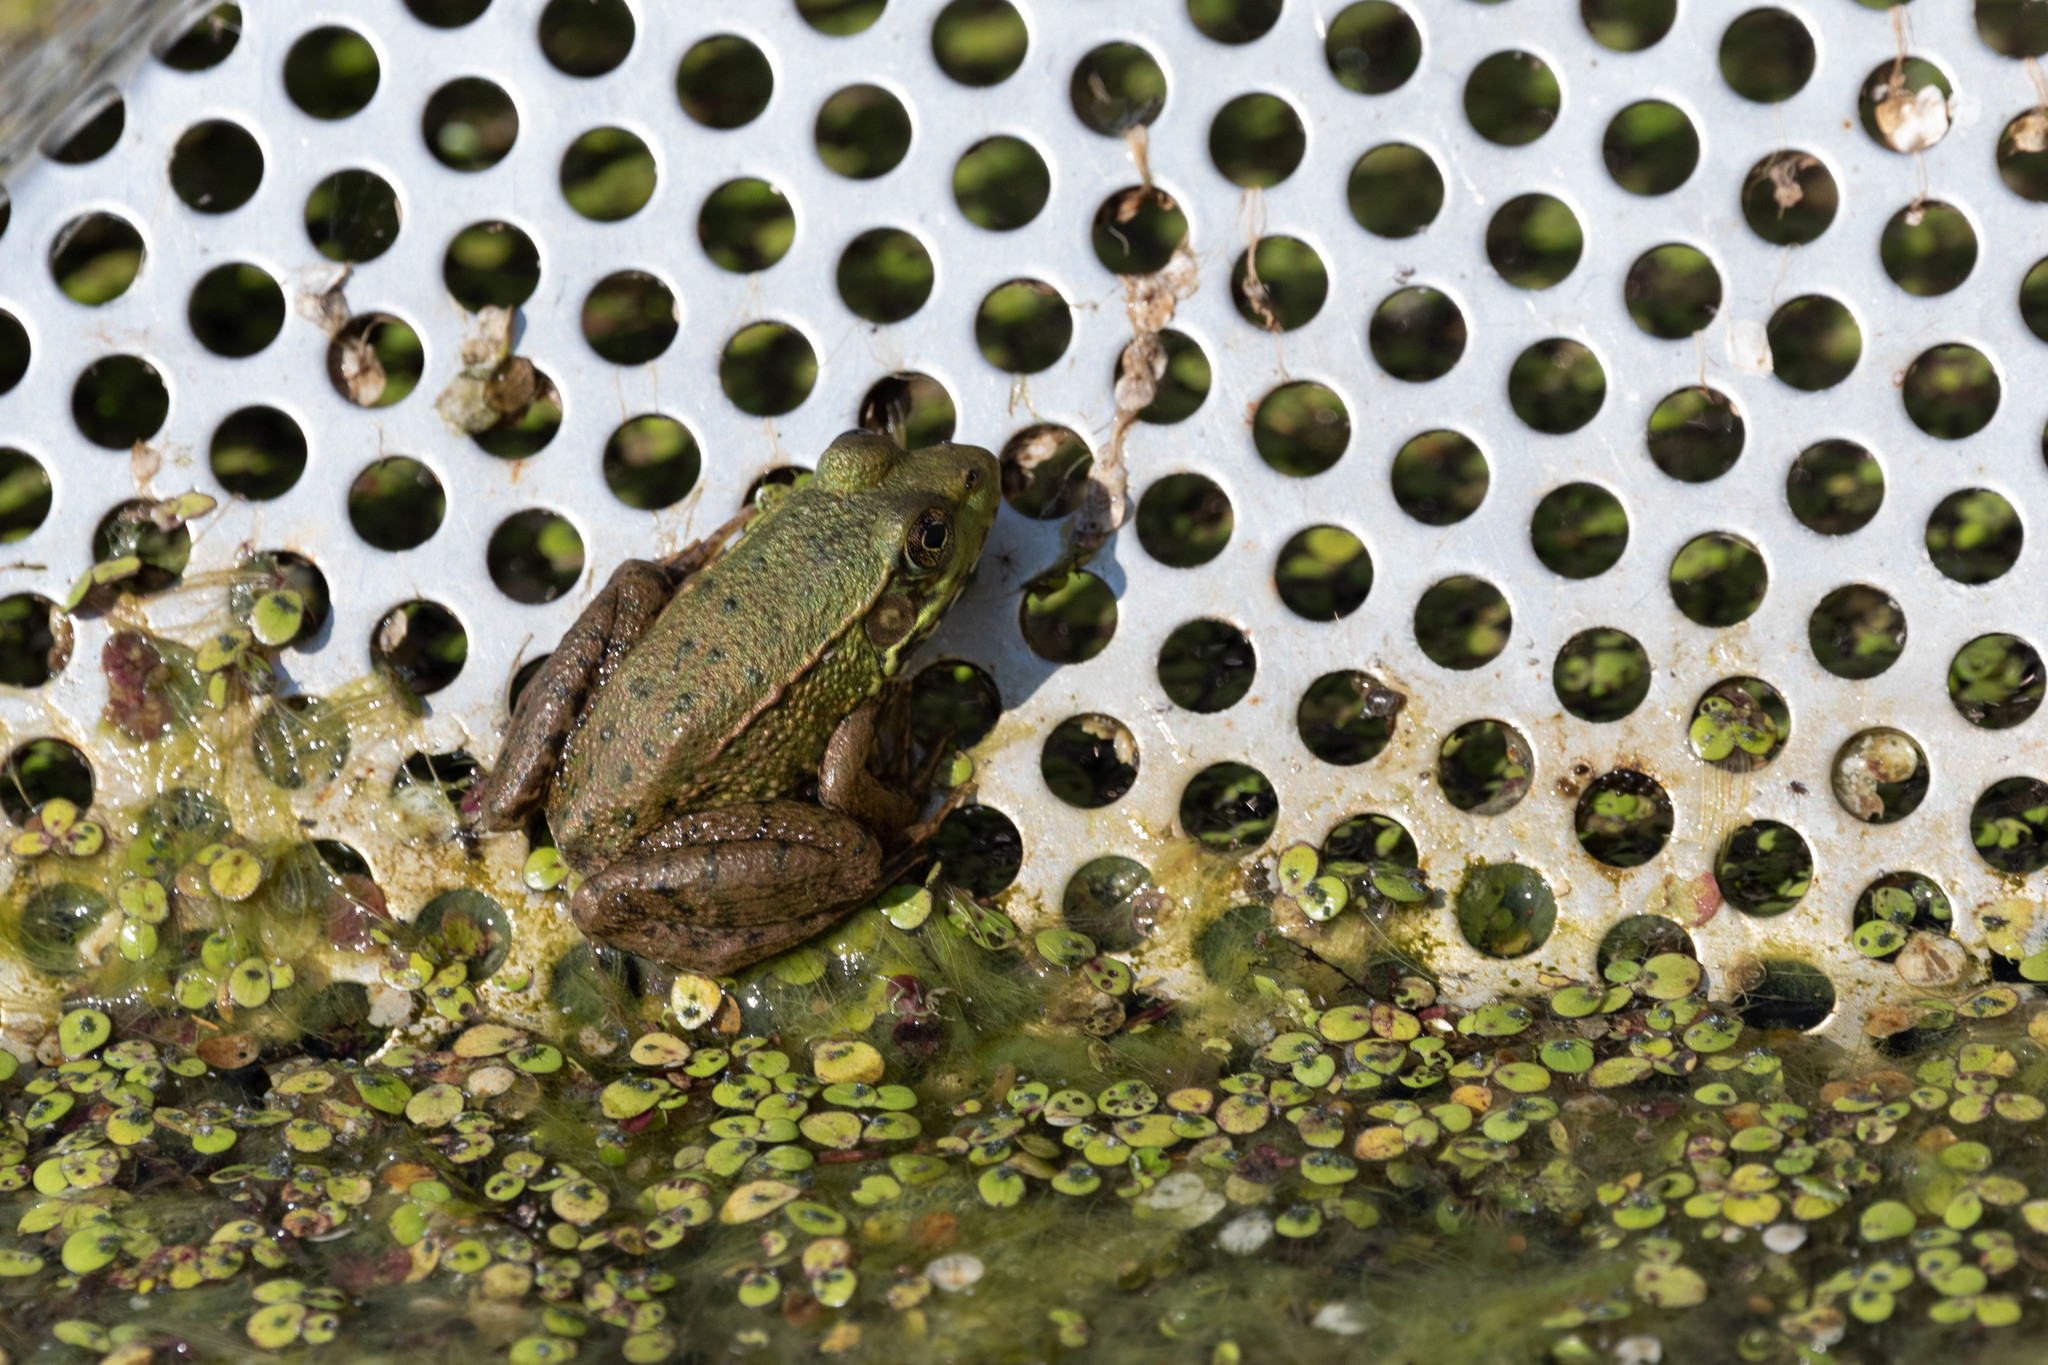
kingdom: Animalia
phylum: Chordata
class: Amphibia
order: Anura
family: Ranidae
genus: Lithobates
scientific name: Lithobates clamitans
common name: Green frog
